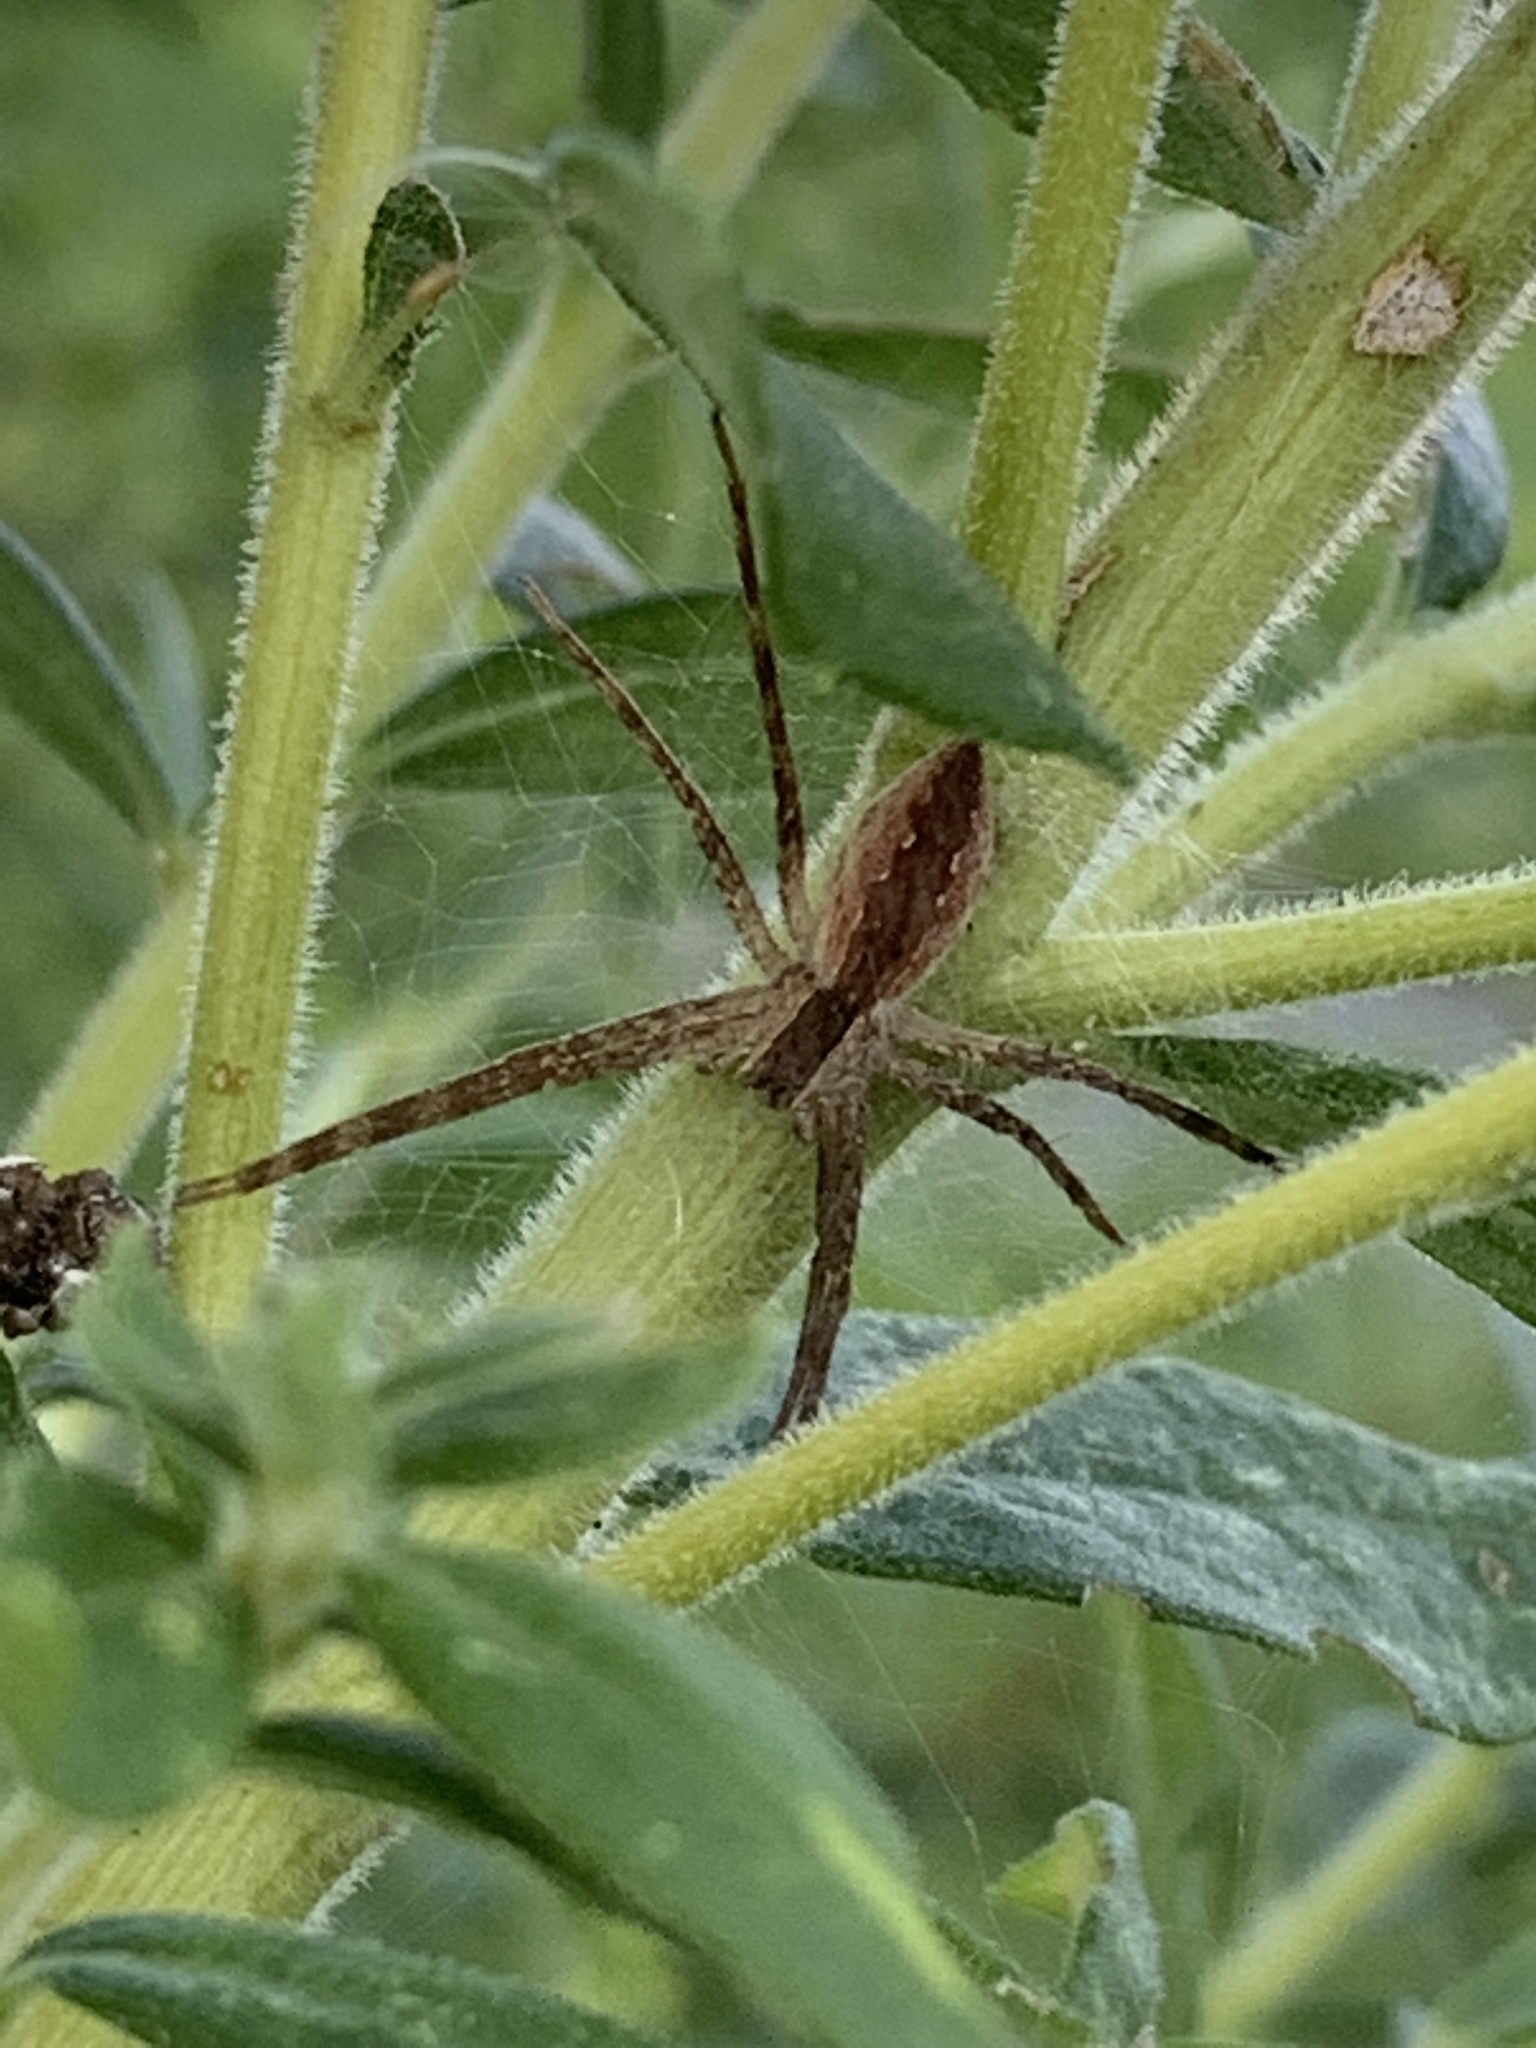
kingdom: Animalia
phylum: Arthropoda
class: Arachnida
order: Araneae
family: Pisauridae
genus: Pisaurina
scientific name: Pisaurina mira
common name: American nursery web spider
